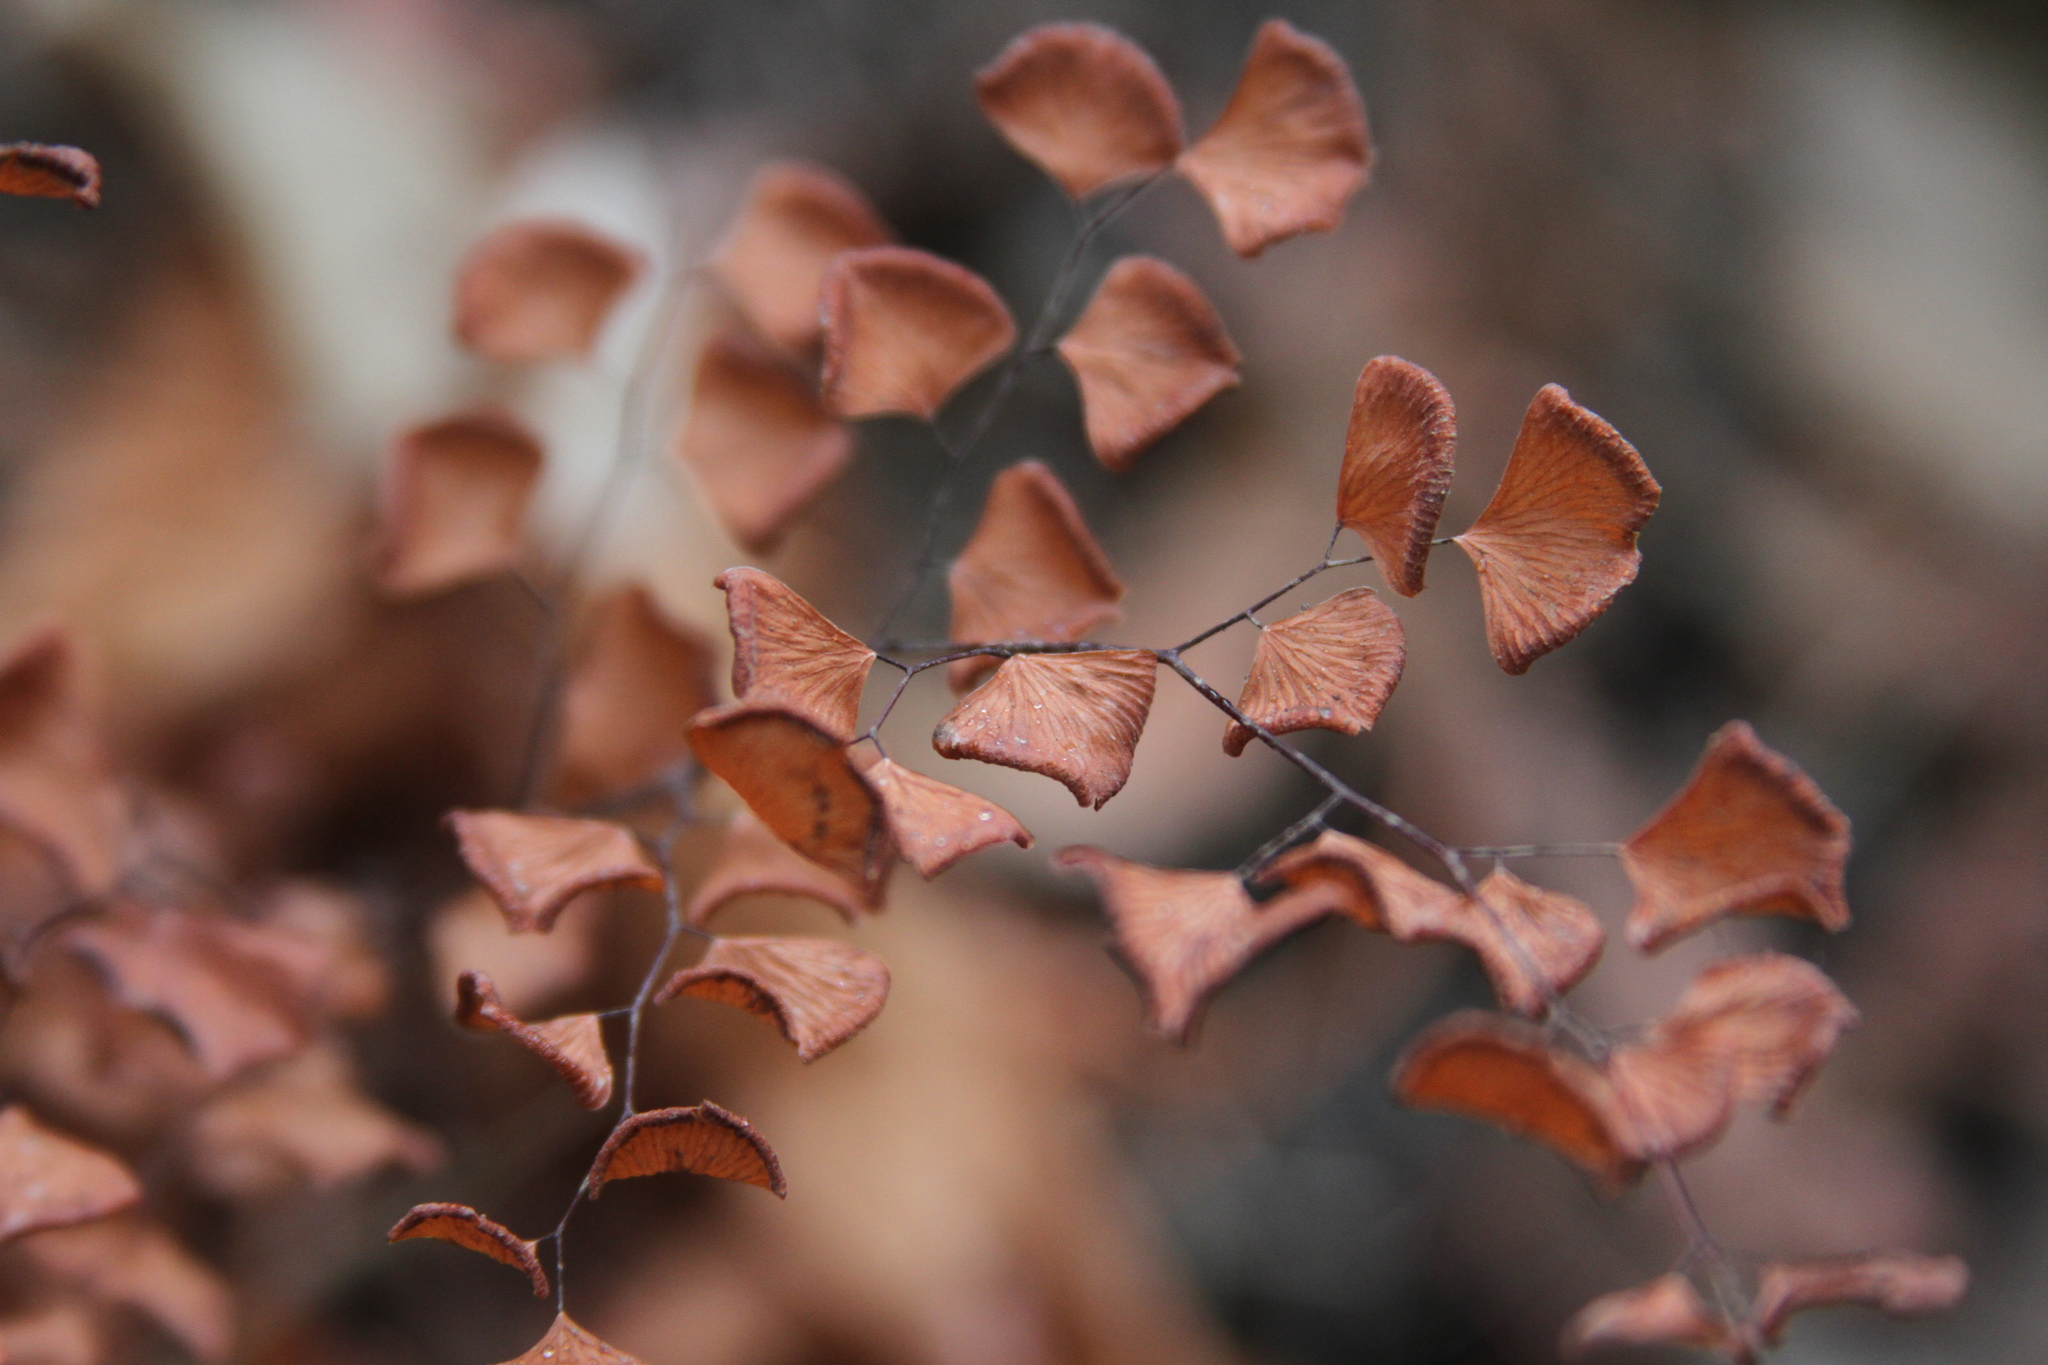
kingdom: Plantae
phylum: Tracheophyta
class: Polypodiopsida
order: Polypodiales
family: Pteridaceae
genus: Adiantum
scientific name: Adiantum jordanii
